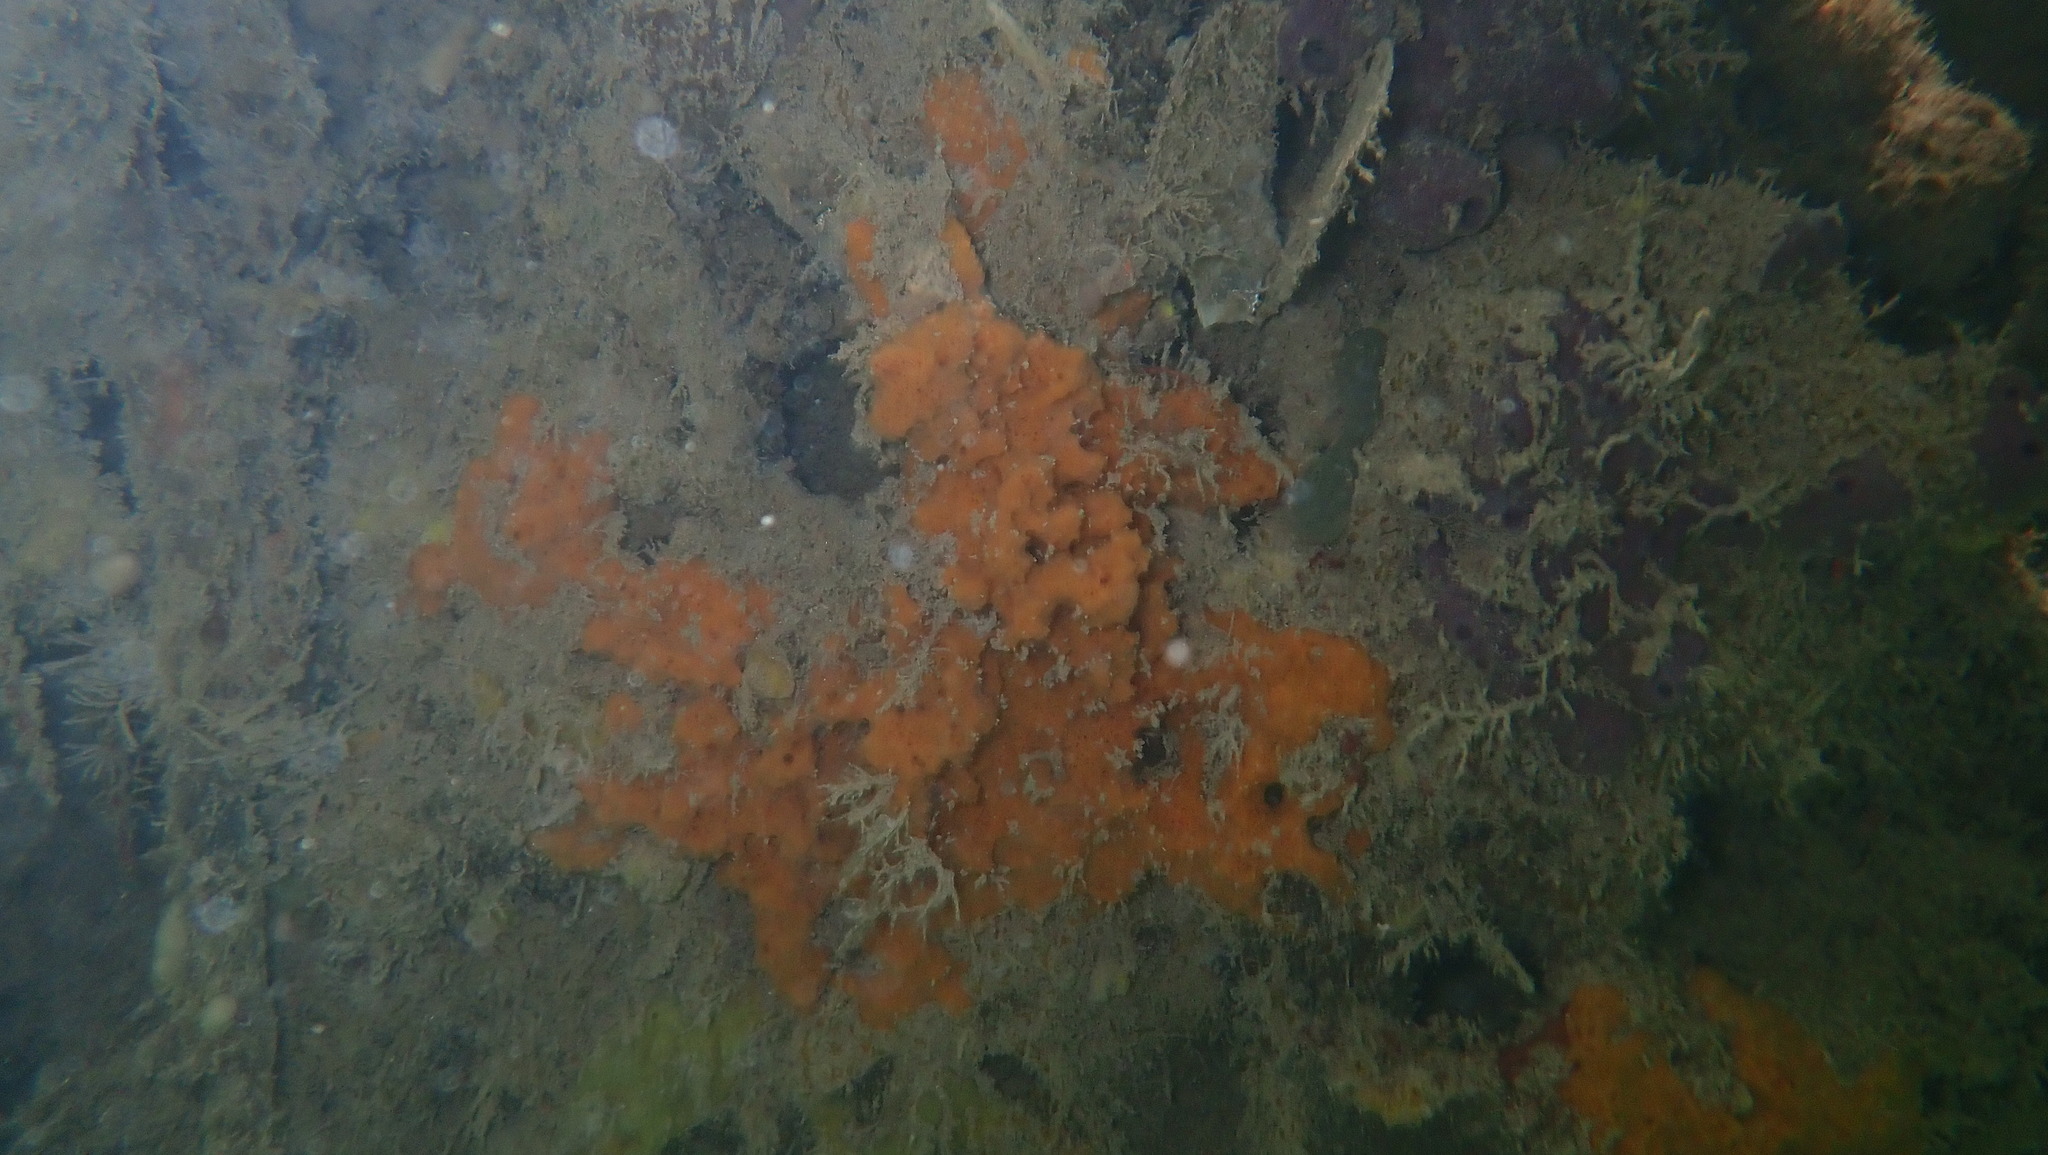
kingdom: Animalia
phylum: Porifera
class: Demospongiae
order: Scopalinida
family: Scopalinidae
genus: Scopalina
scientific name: Scopalina ruetzleri
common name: Orange lumpy encrusting sponge
